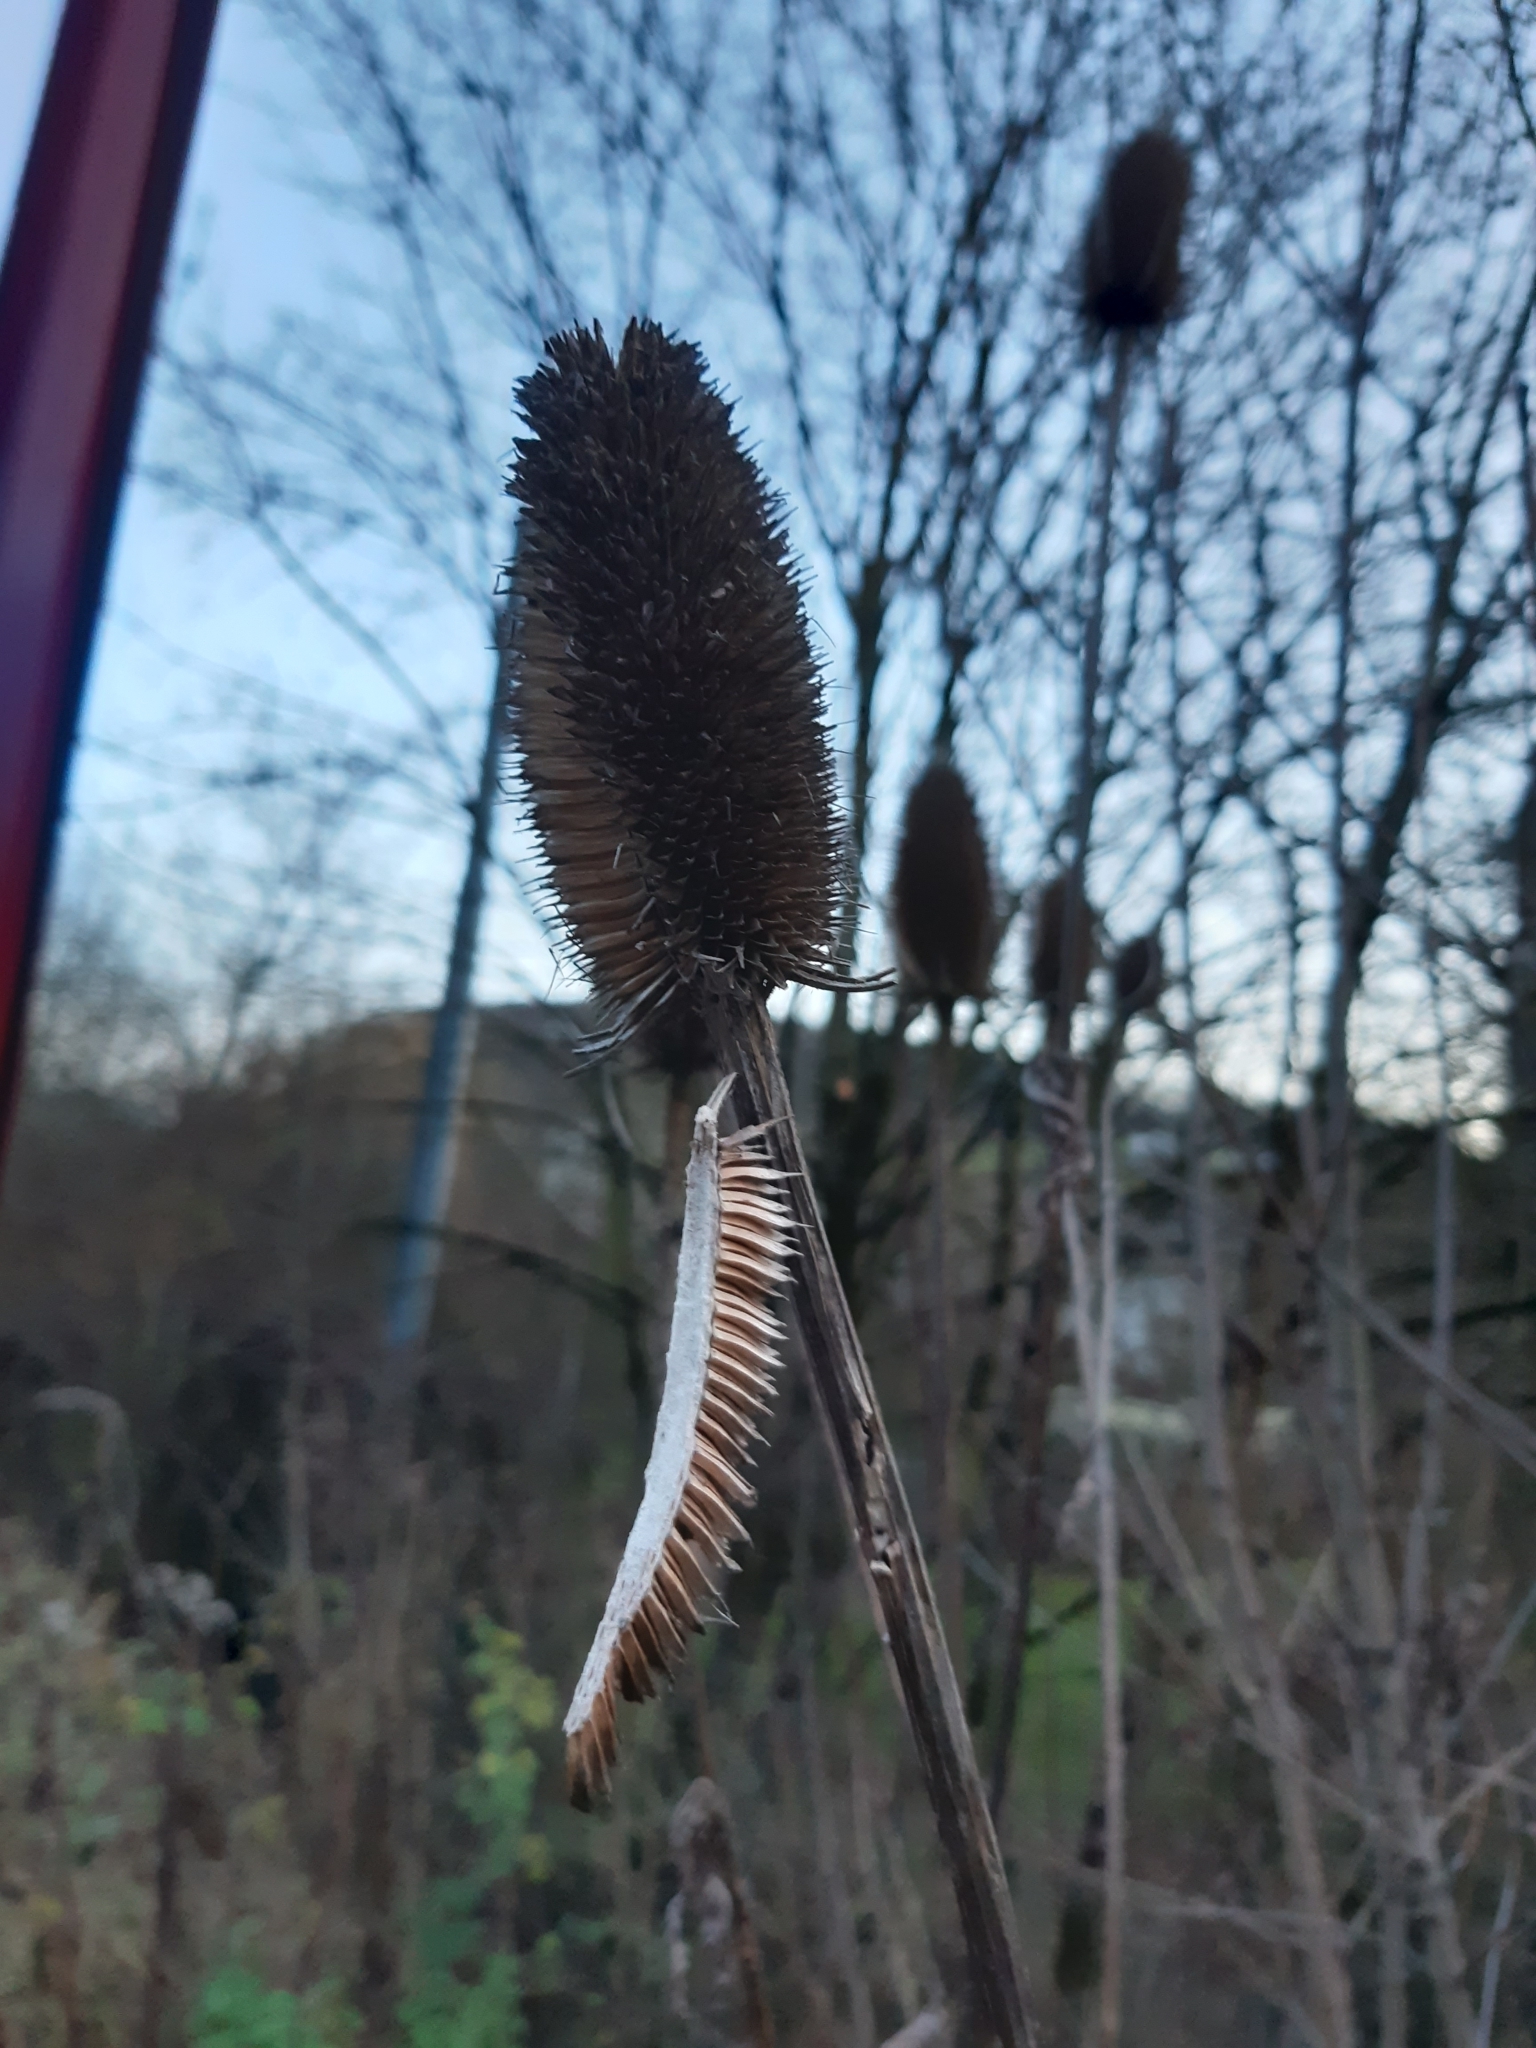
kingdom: Plantae
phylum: Tracheophyta
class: Magnoliopsida
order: Dipsacales
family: Caprifoliaceae
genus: Dipsacus
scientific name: Dipsacus fullonum
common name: Teasel
